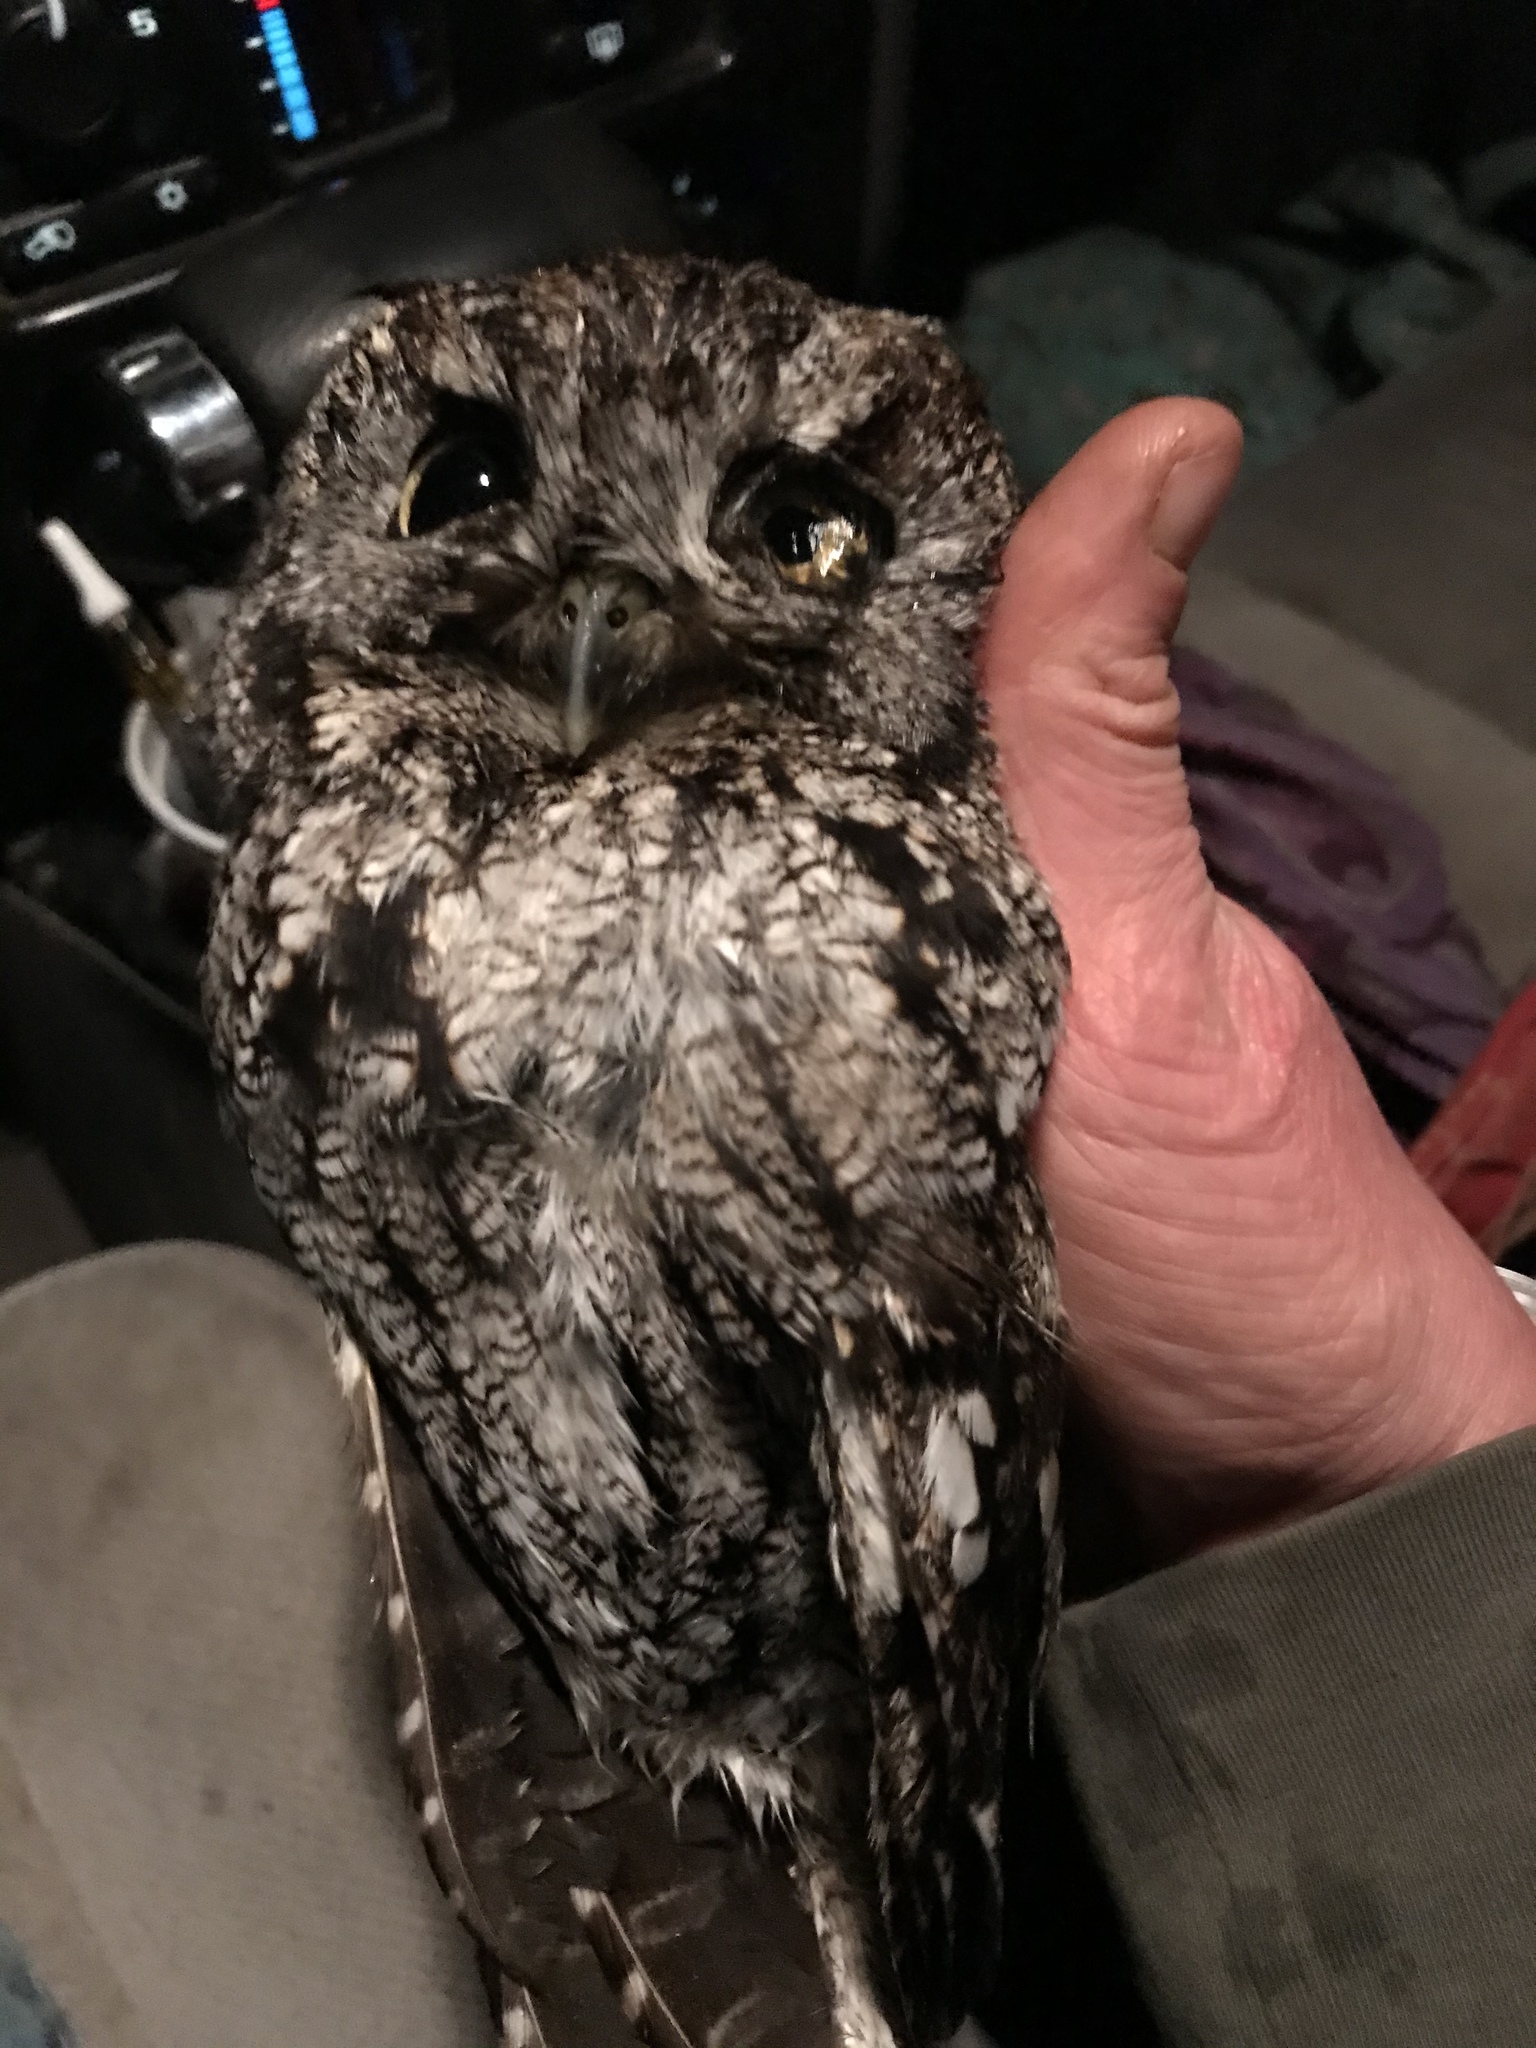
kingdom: Animalia
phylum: Chordata
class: Aves
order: Strigiformes
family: Strigidae
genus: Megascops
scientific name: Megascops kennicottii
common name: Western screech-owl
